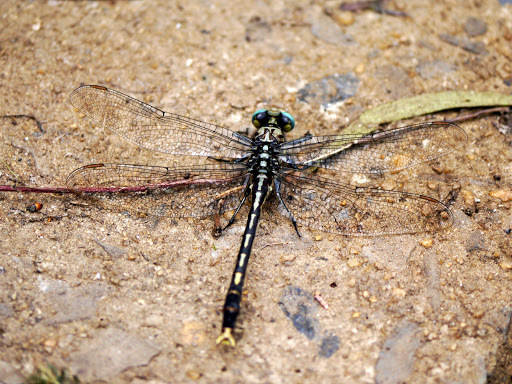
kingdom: Animalia
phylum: Arthropoda
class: Insecta
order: Odonata
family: Gomphidae
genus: Arigomphus
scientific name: Arigomphus villosipes
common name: Unicorn clubtail
